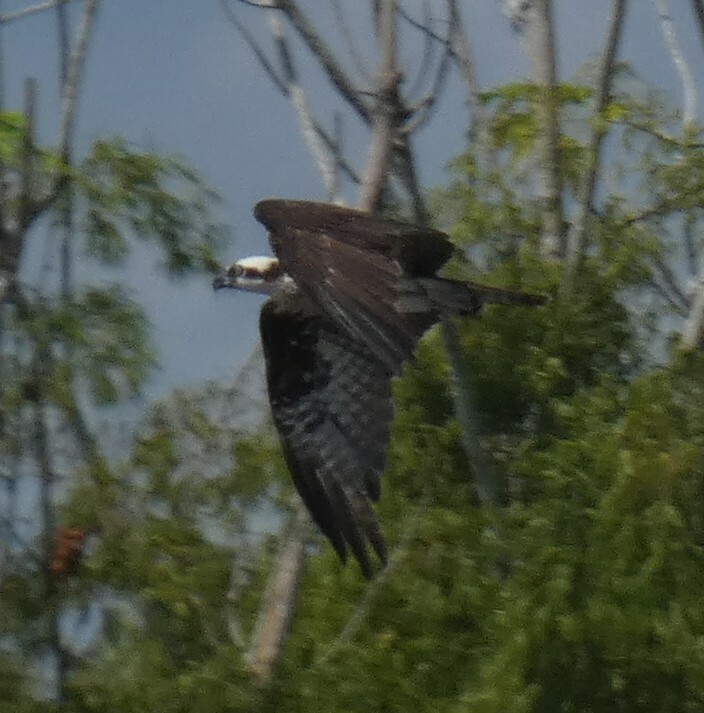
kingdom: Animalia
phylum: Chordata
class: Aves
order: Accipitriformes
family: Pandionidae
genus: Pandion
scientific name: Pandion haliaetus
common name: Osprey
